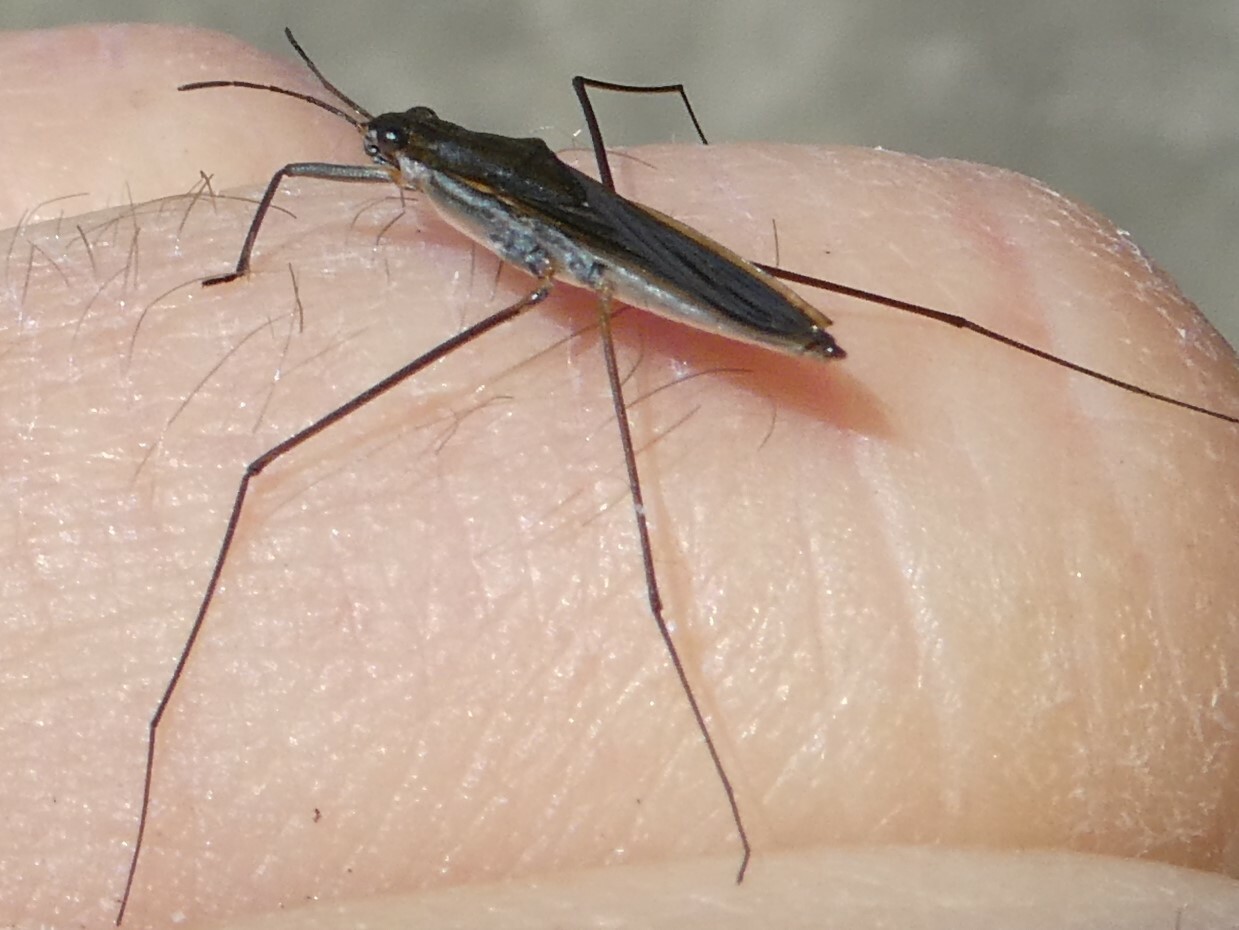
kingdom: Animalia
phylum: Arthropoda
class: Insecta
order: Hemiptera
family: Gerridae
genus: Gerris
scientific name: Gerris
